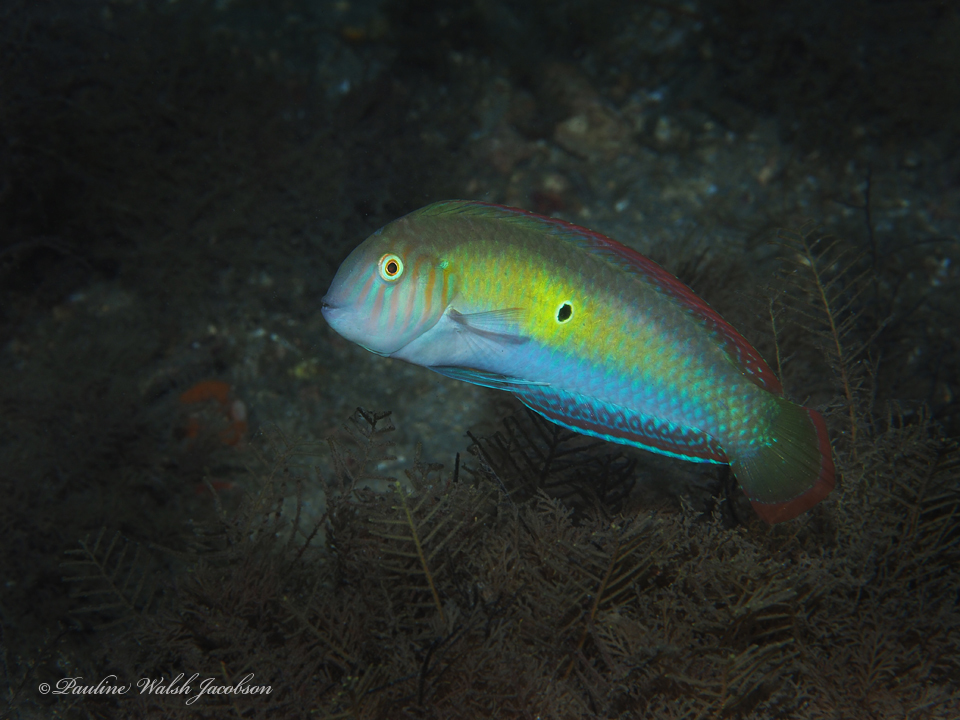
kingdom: Animalia
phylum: Chordata
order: Perciformes
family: Labridae
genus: Xyrichtys
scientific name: Xyrichtys splendens
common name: Green razorfish
